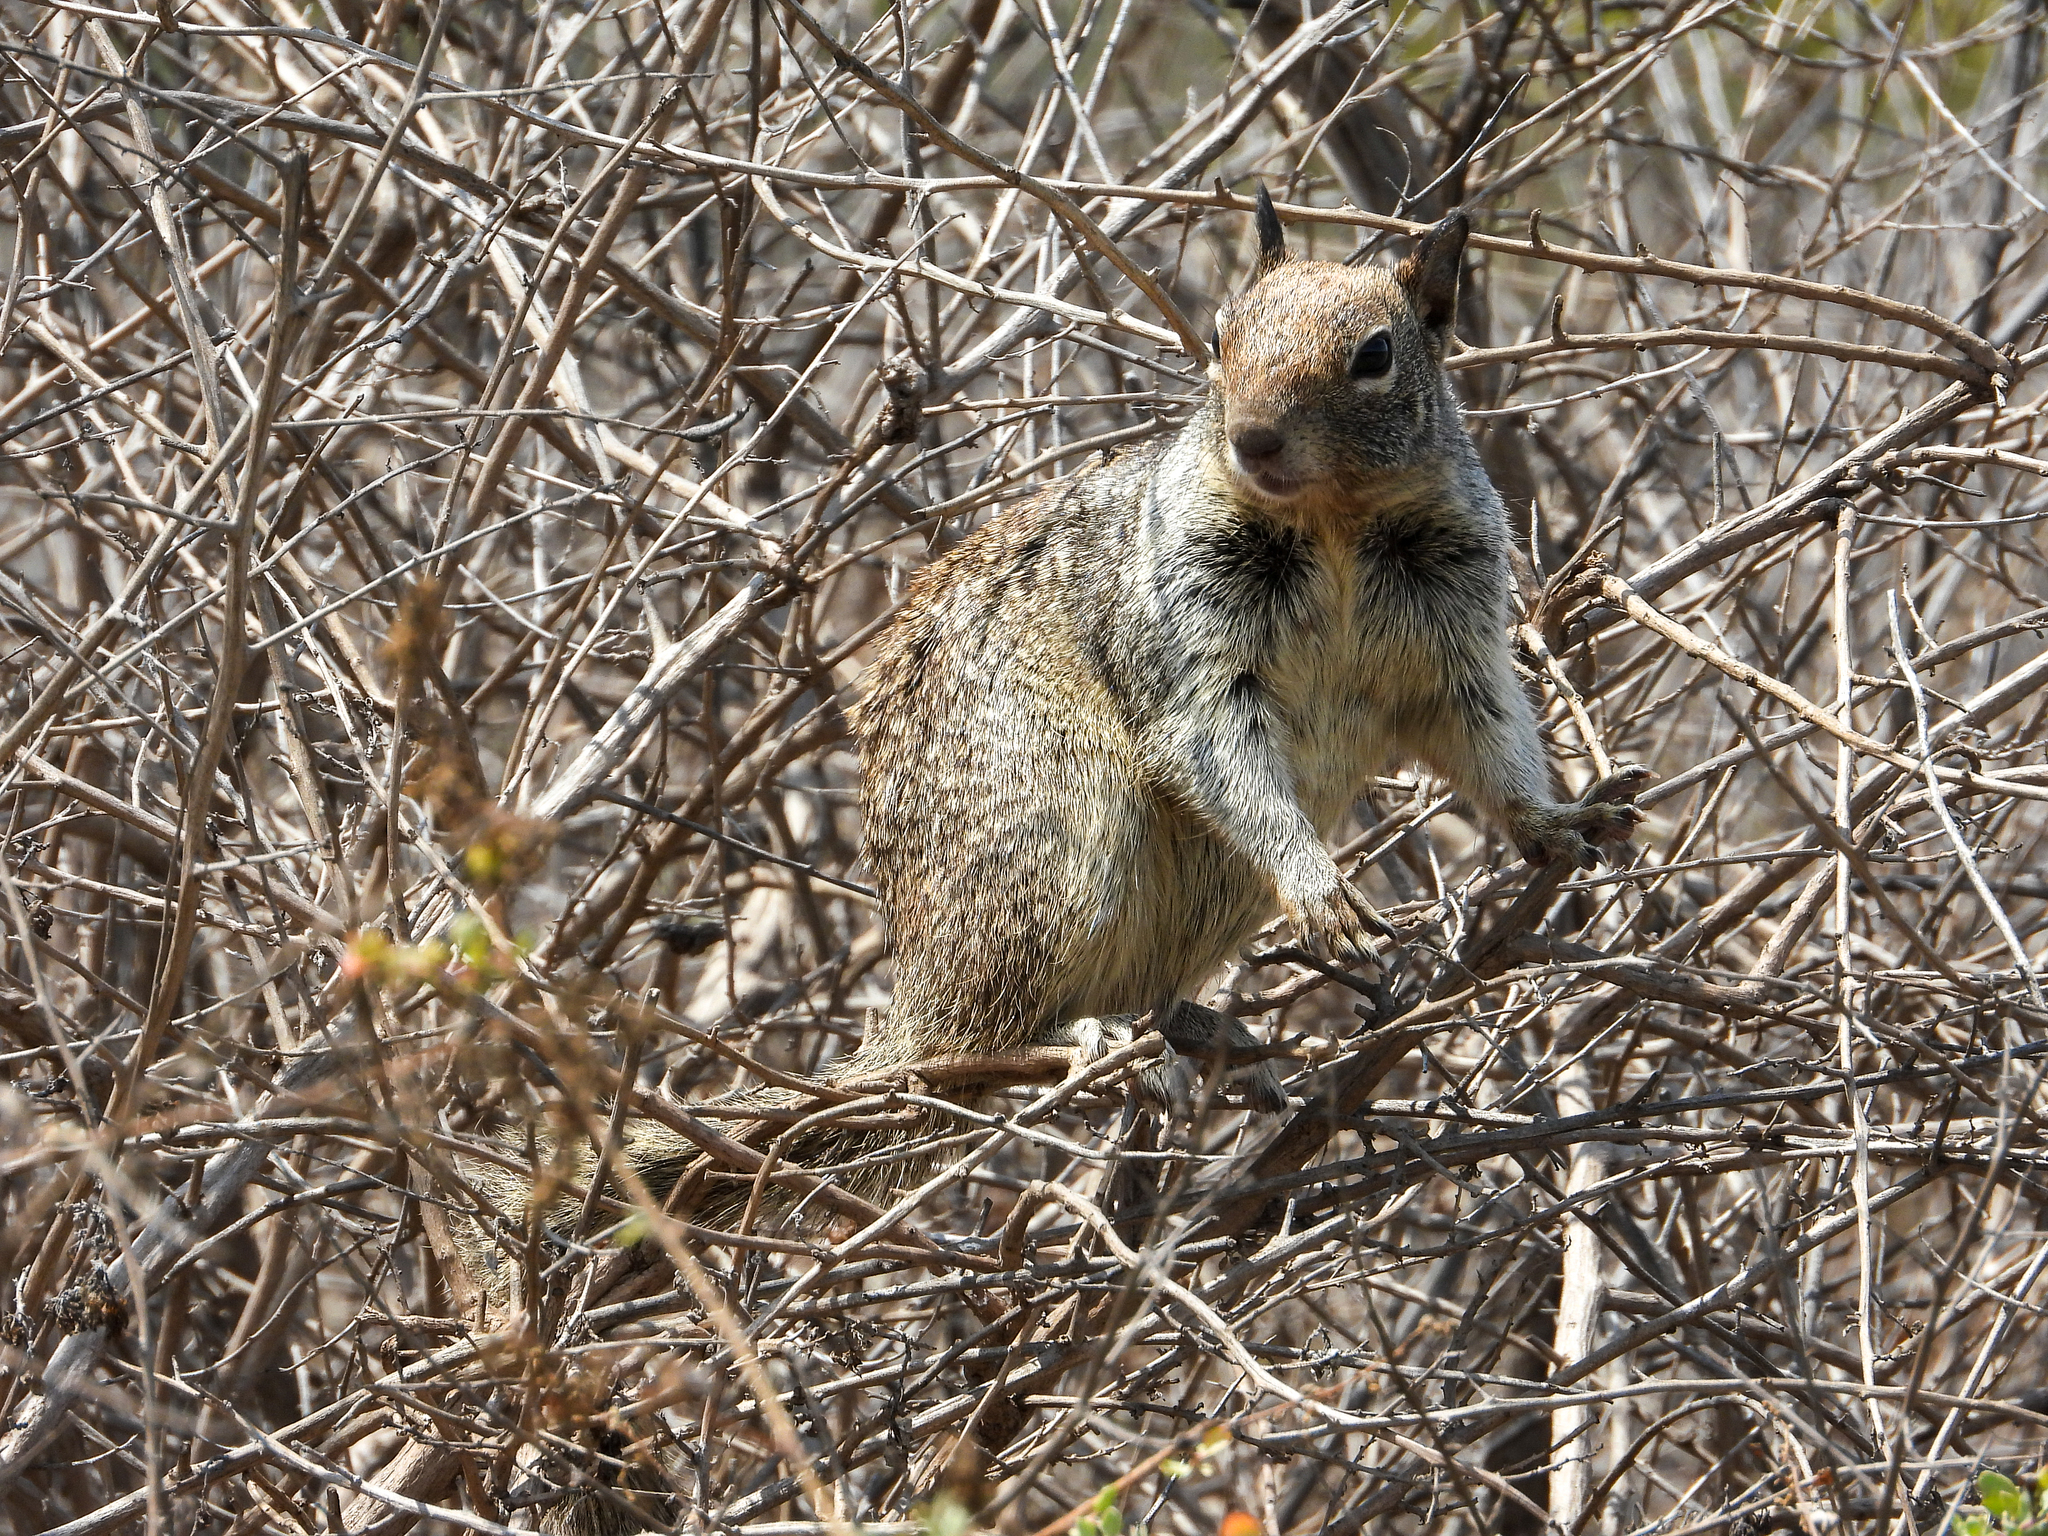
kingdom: Animalia
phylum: Chordata
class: Mammalia
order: Rodentia
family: Sciuridae
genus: Otospermophilus
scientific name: Otospermophilus beecheyi
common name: California ground squirrel
